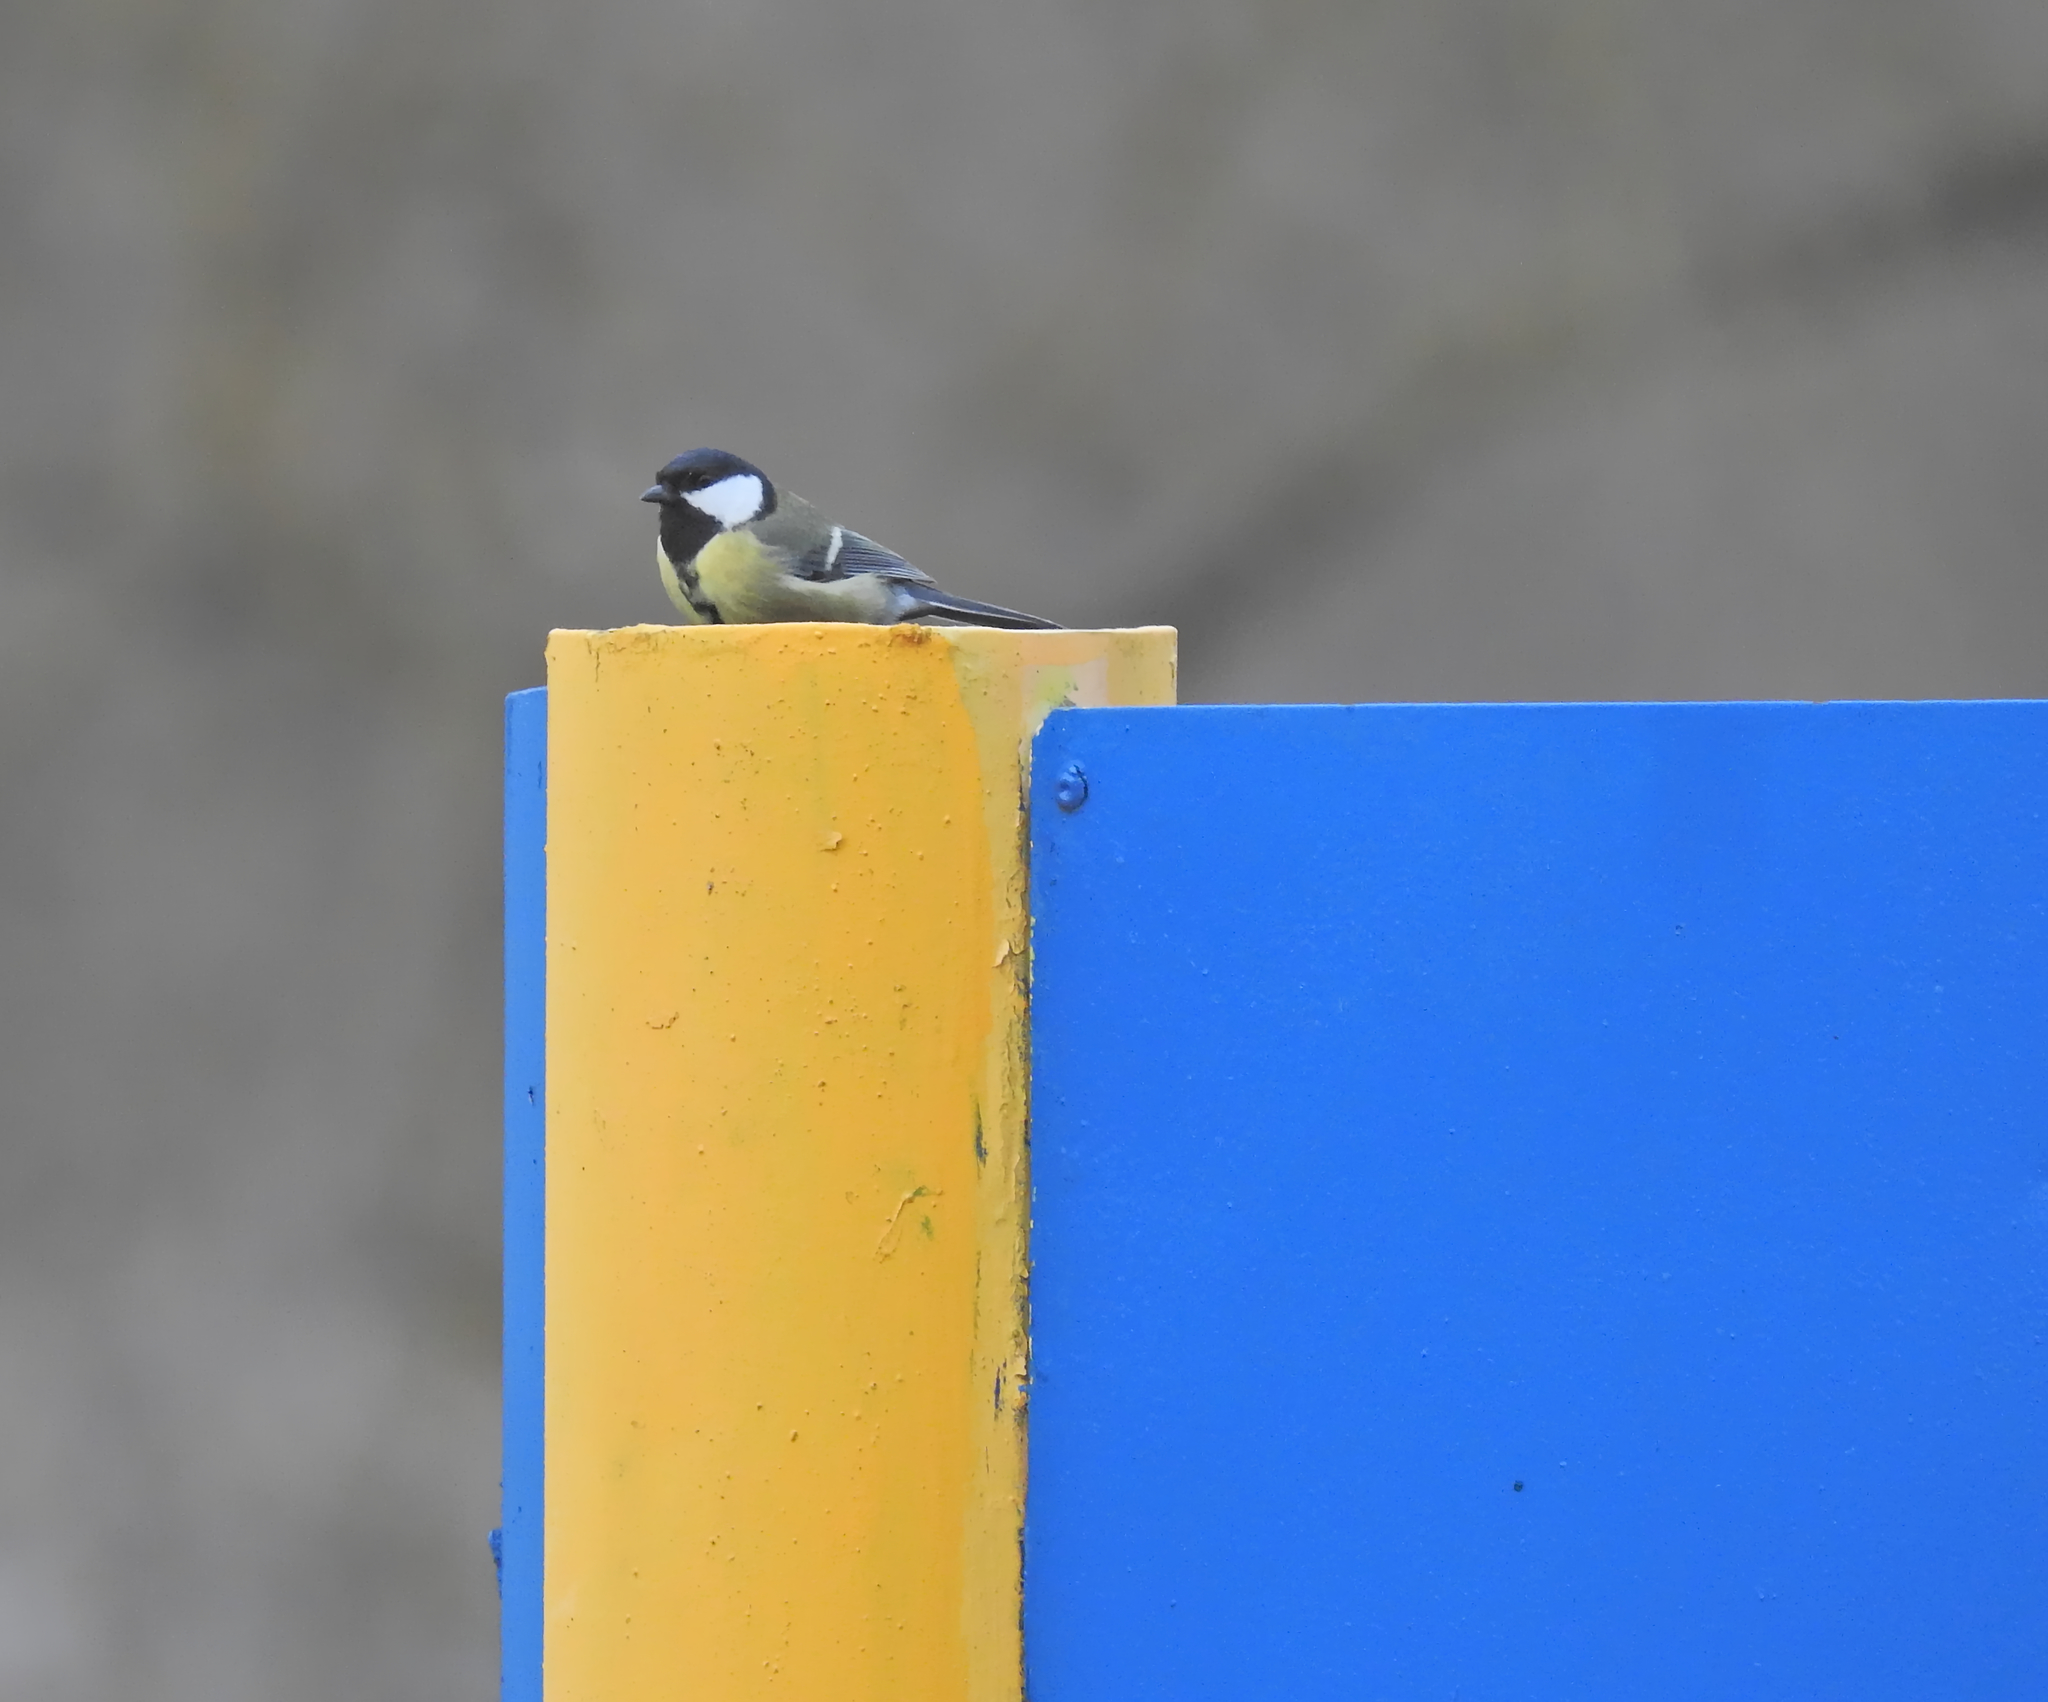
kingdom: Animalia
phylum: Chordata
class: Aves
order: Passeriformes
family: Paridae
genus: Parus
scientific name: Parus major
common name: Great tit
